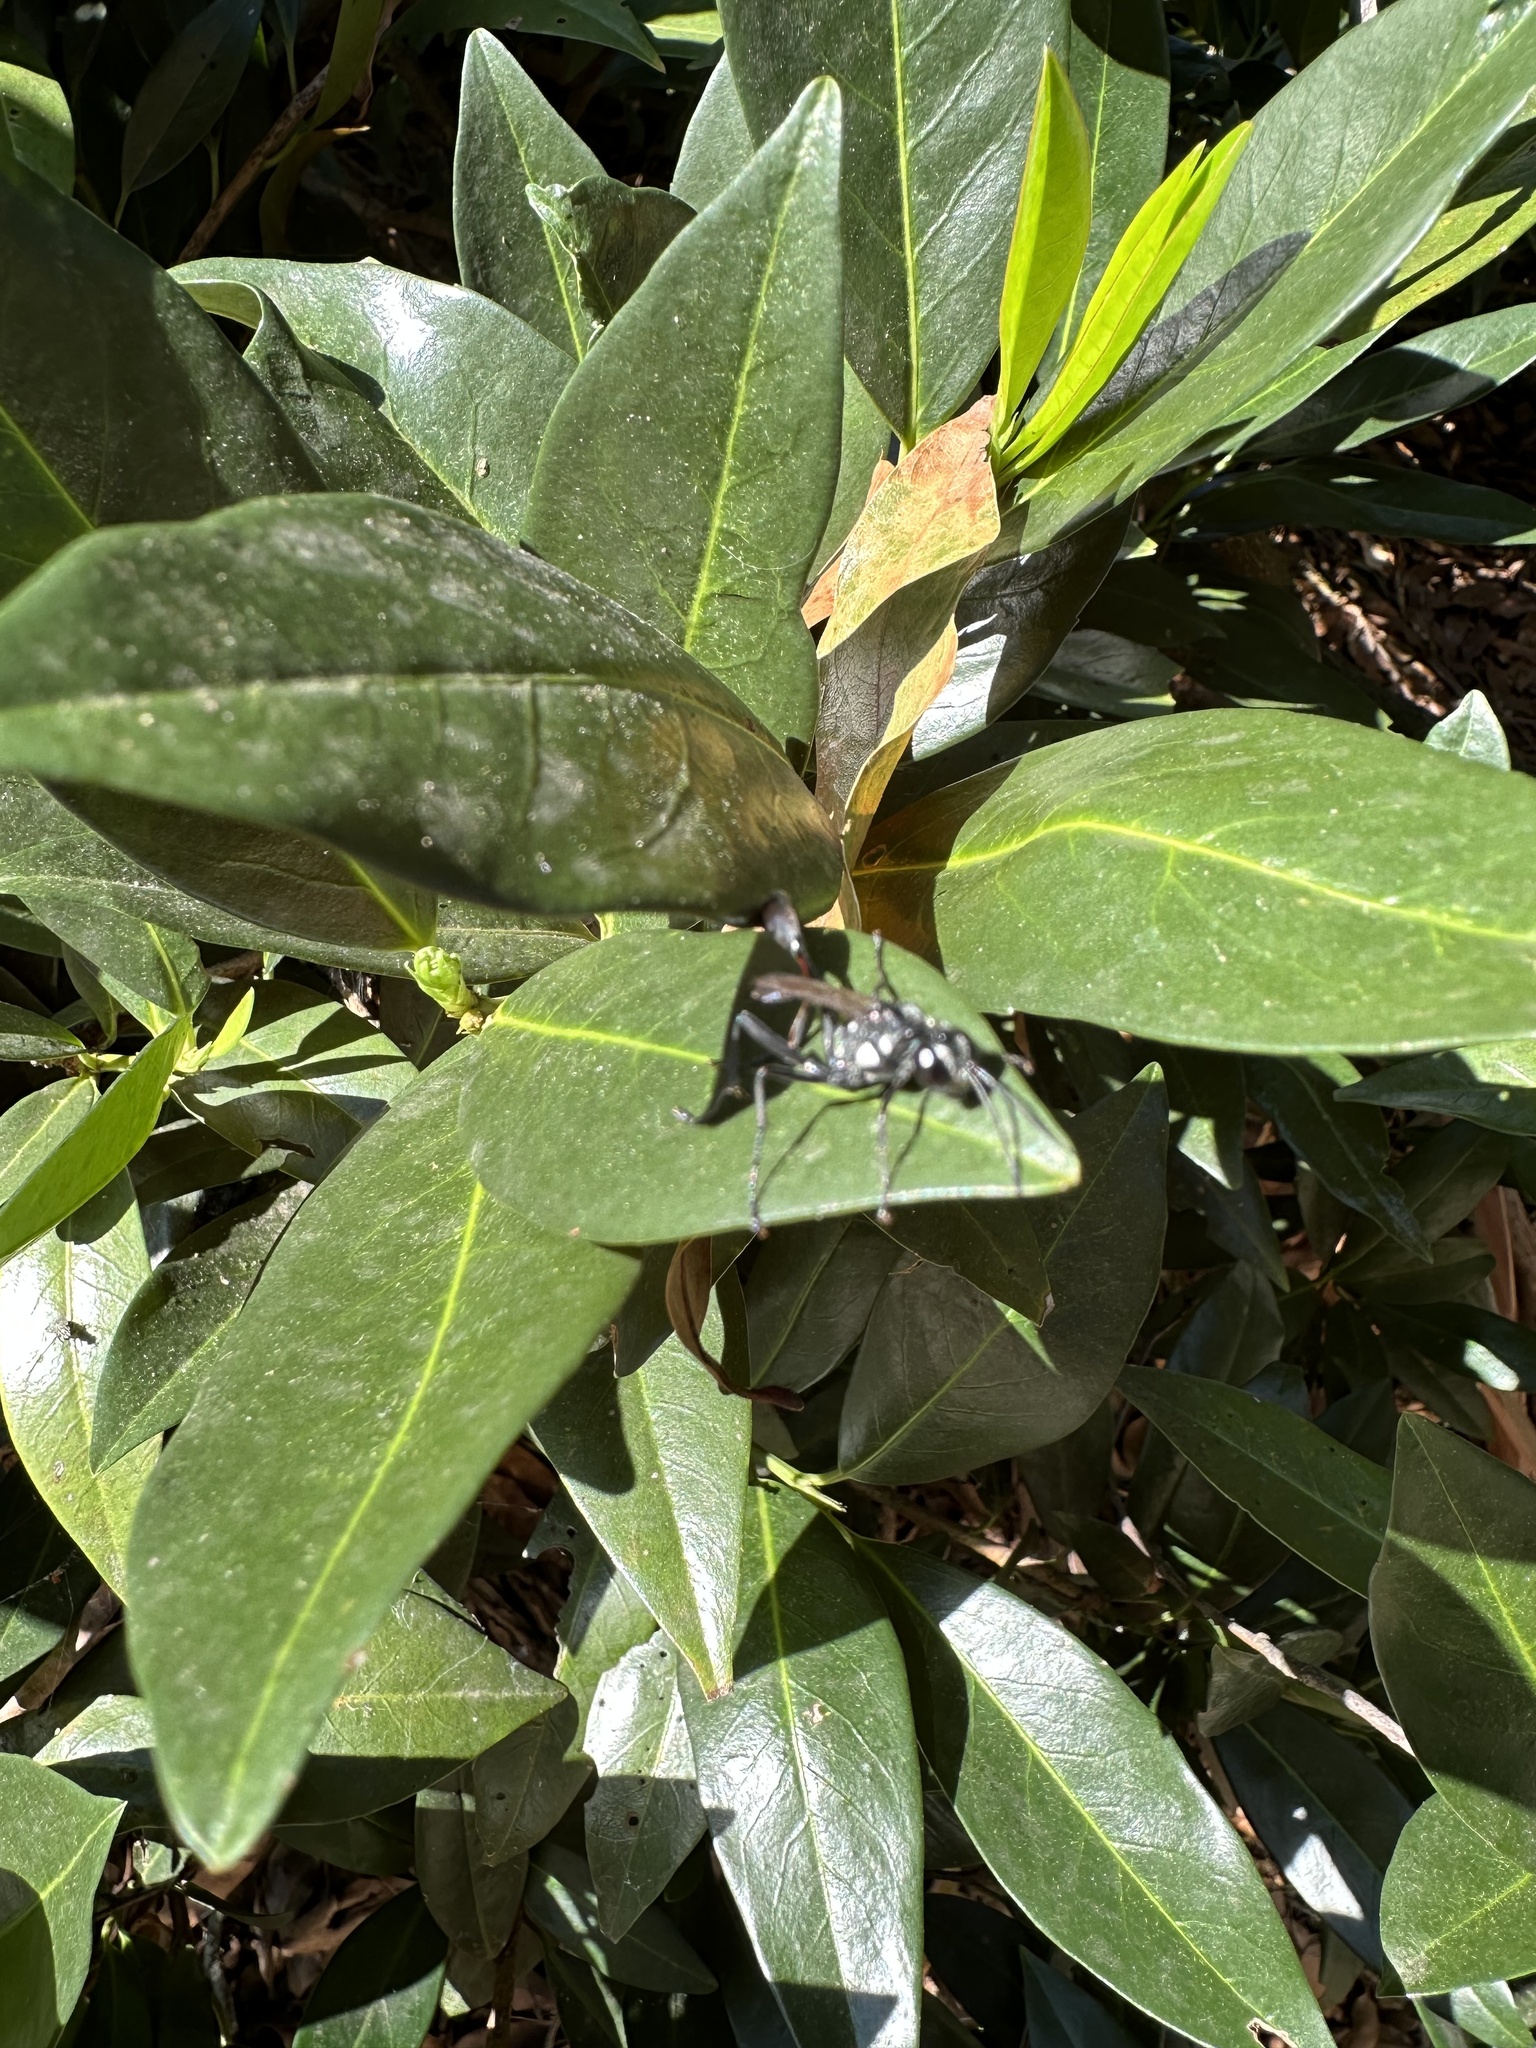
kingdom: Animalia
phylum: Arthropoda
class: Insecta
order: Hymenoptera
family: Sphecidae
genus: Eremnophila
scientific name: Eremnophila aureonotata
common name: Gold-marked thread-waisted wasp
